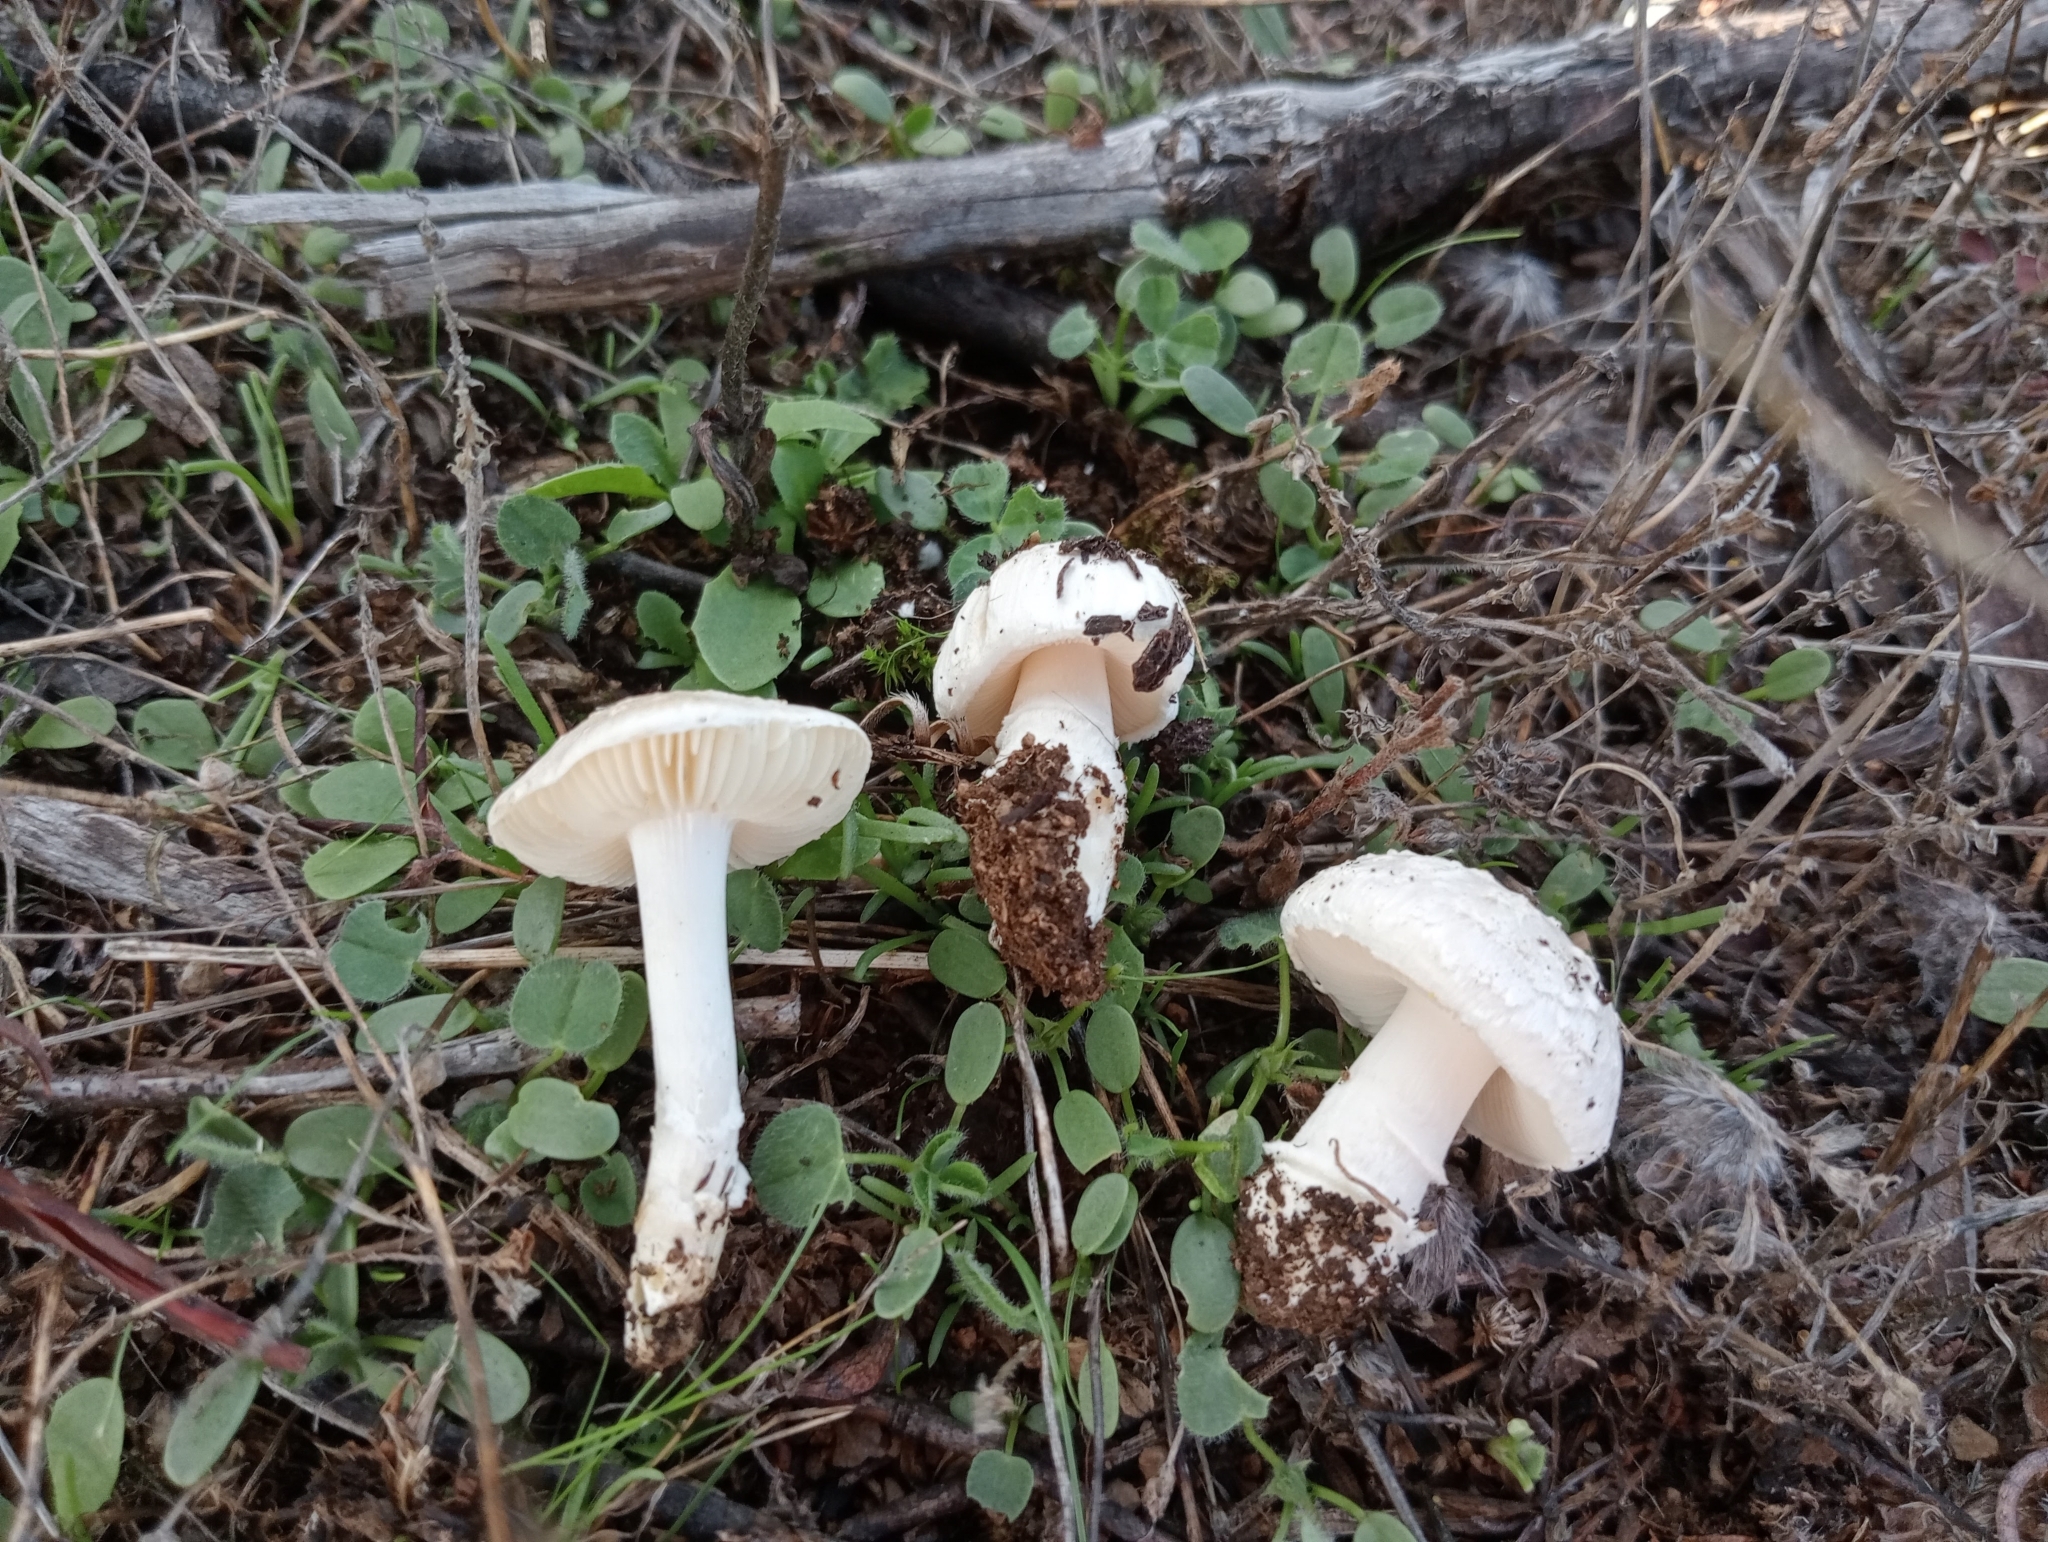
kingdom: Fungi
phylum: Basidiomycota
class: Agaricomycetes
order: Agaricales
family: Amanitaceae
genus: Amanita
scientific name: Amanita singeri
